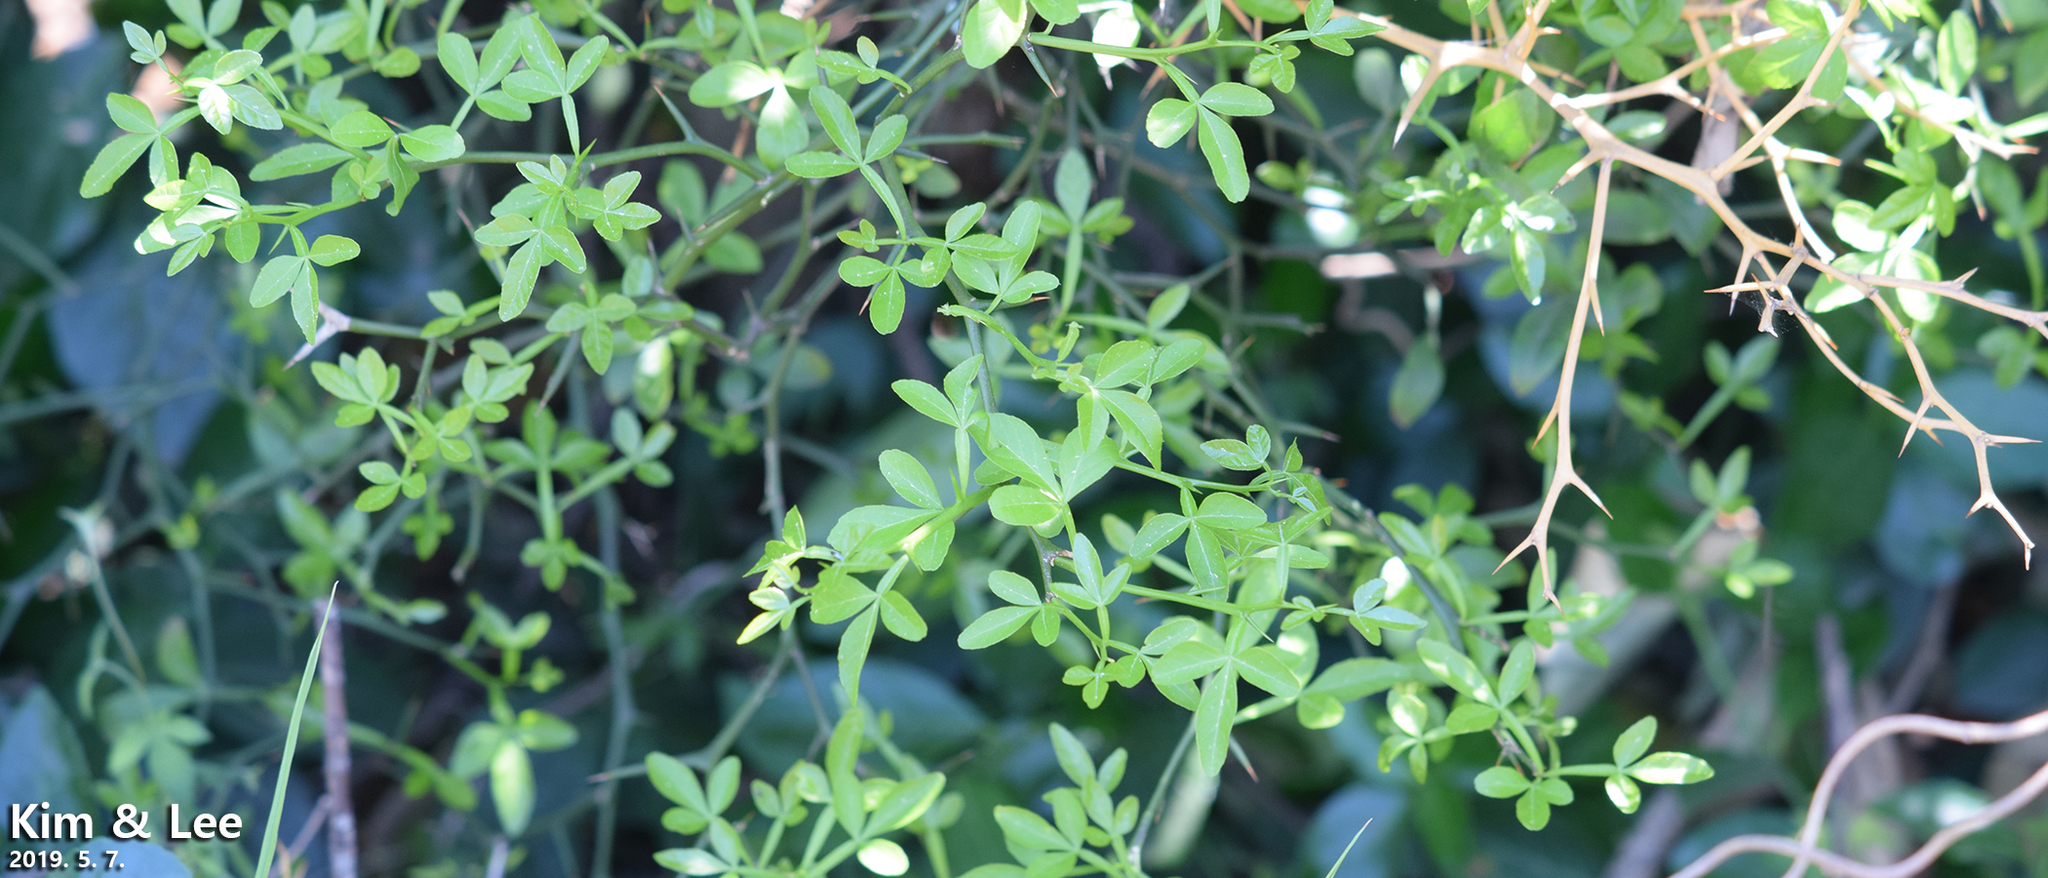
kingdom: Plantae
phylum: Tracheophyta
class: Magnoliopsida
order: Sapindales
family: Rutaceae
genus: Citrus
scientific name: Citrus trifoliata
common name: Japanese bitter-orange
